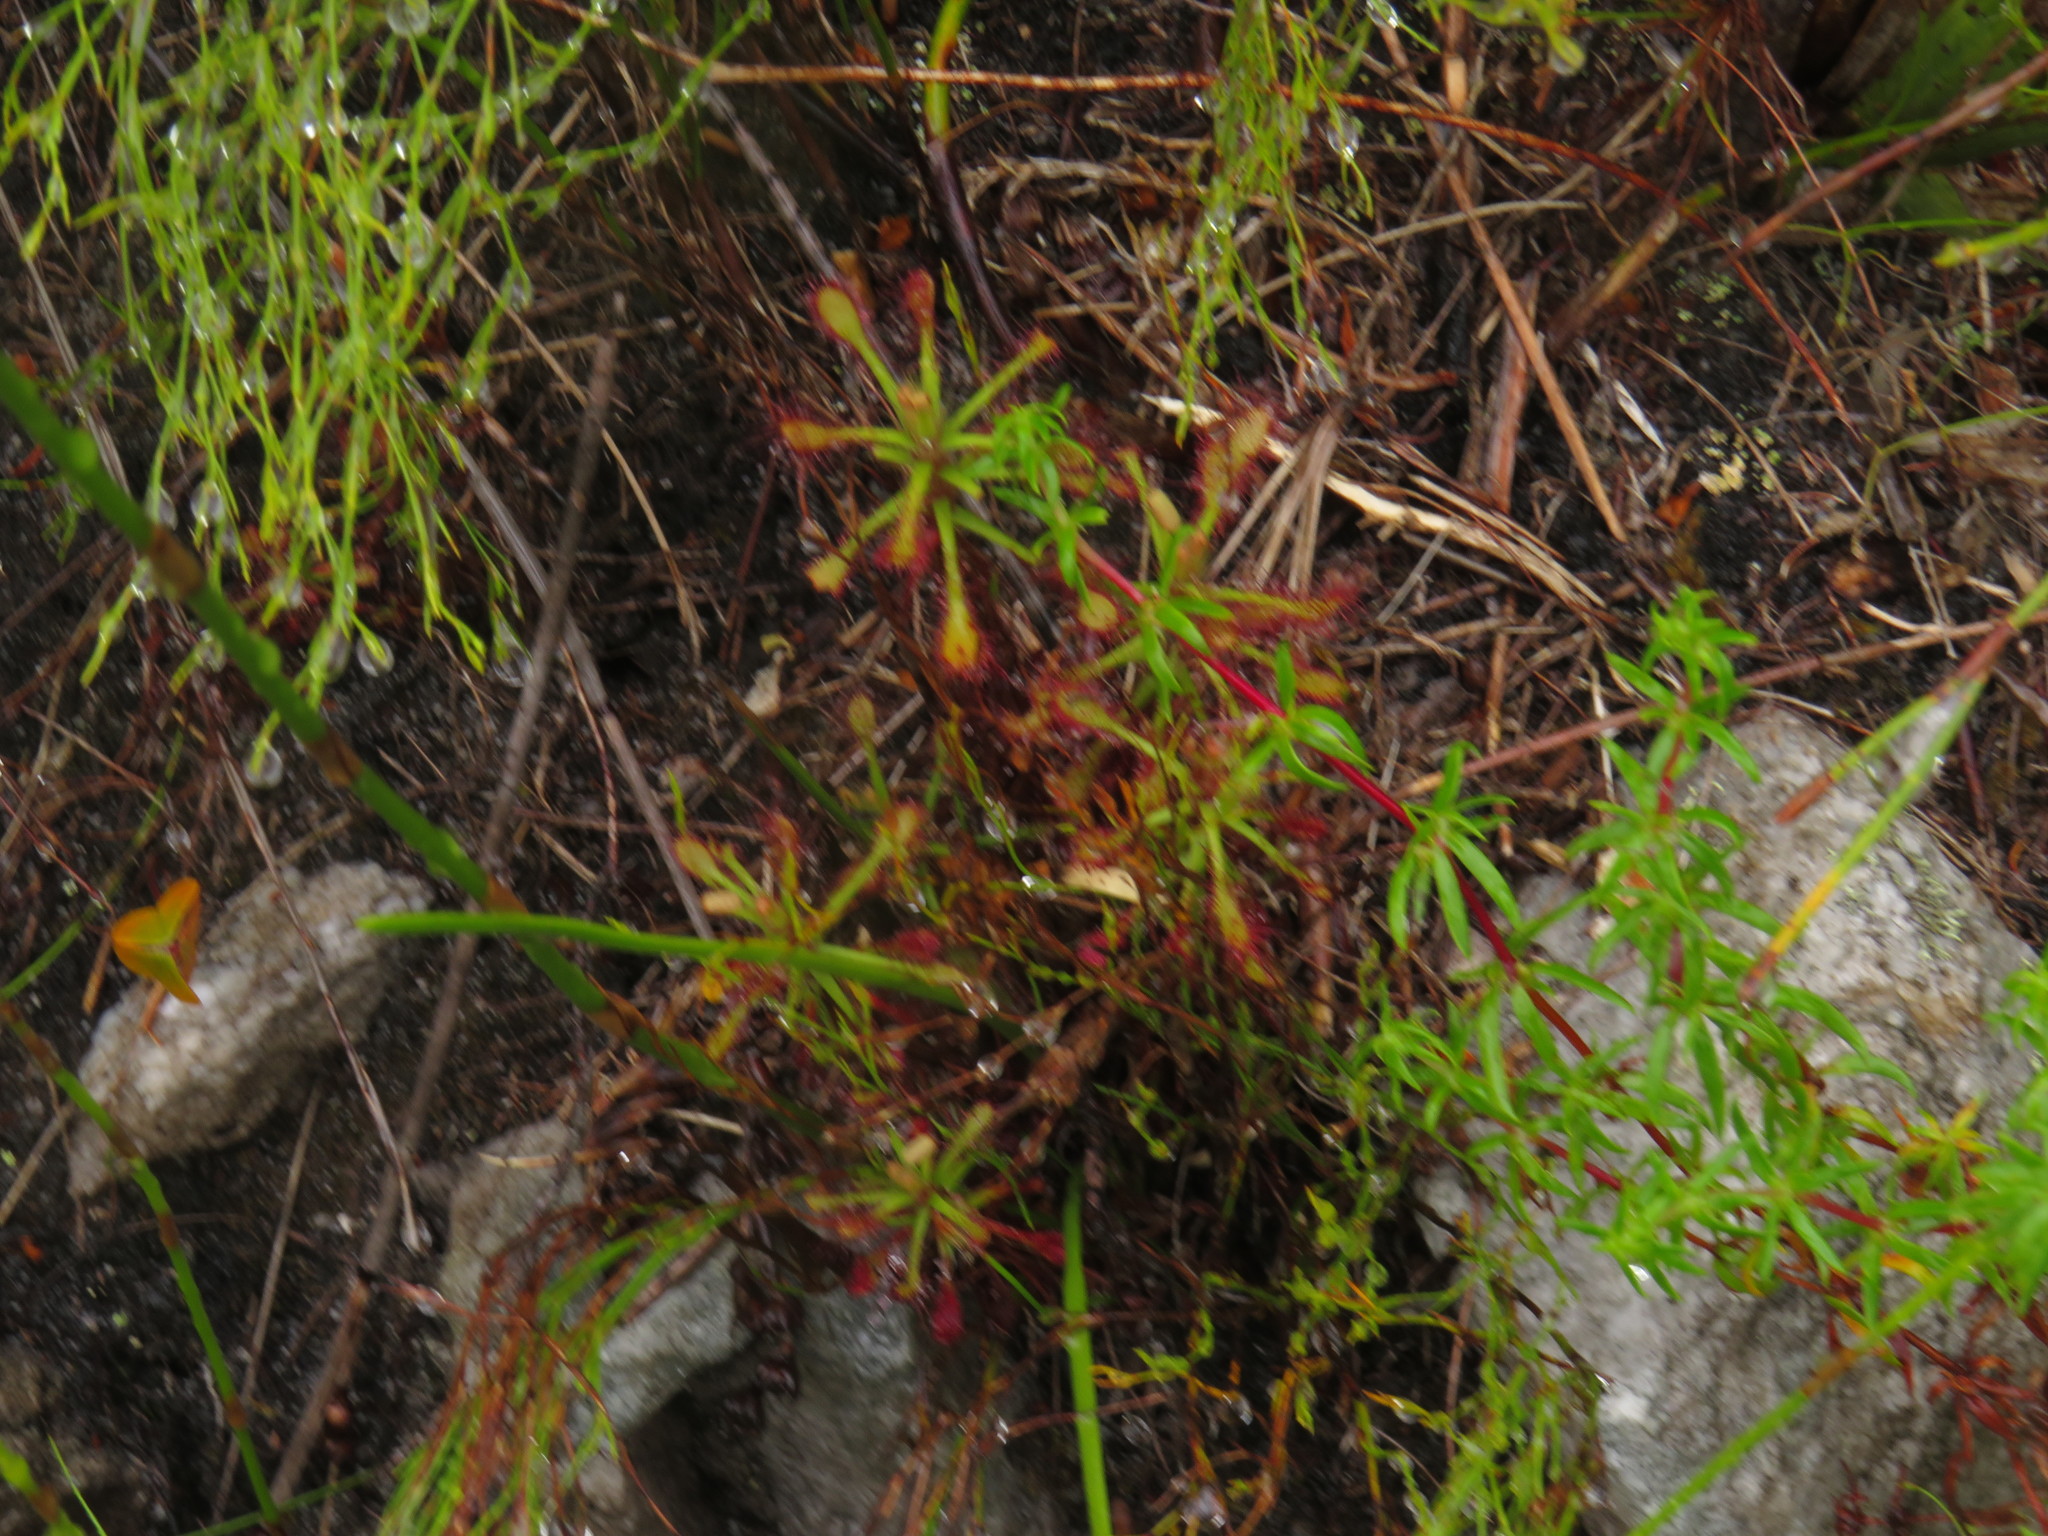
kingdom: Plantae
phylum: Tracheophyta
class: Magnoliopsida
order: Caryophyllales
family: Droseraceae
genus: Drosera
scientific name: Drosera glabripes
